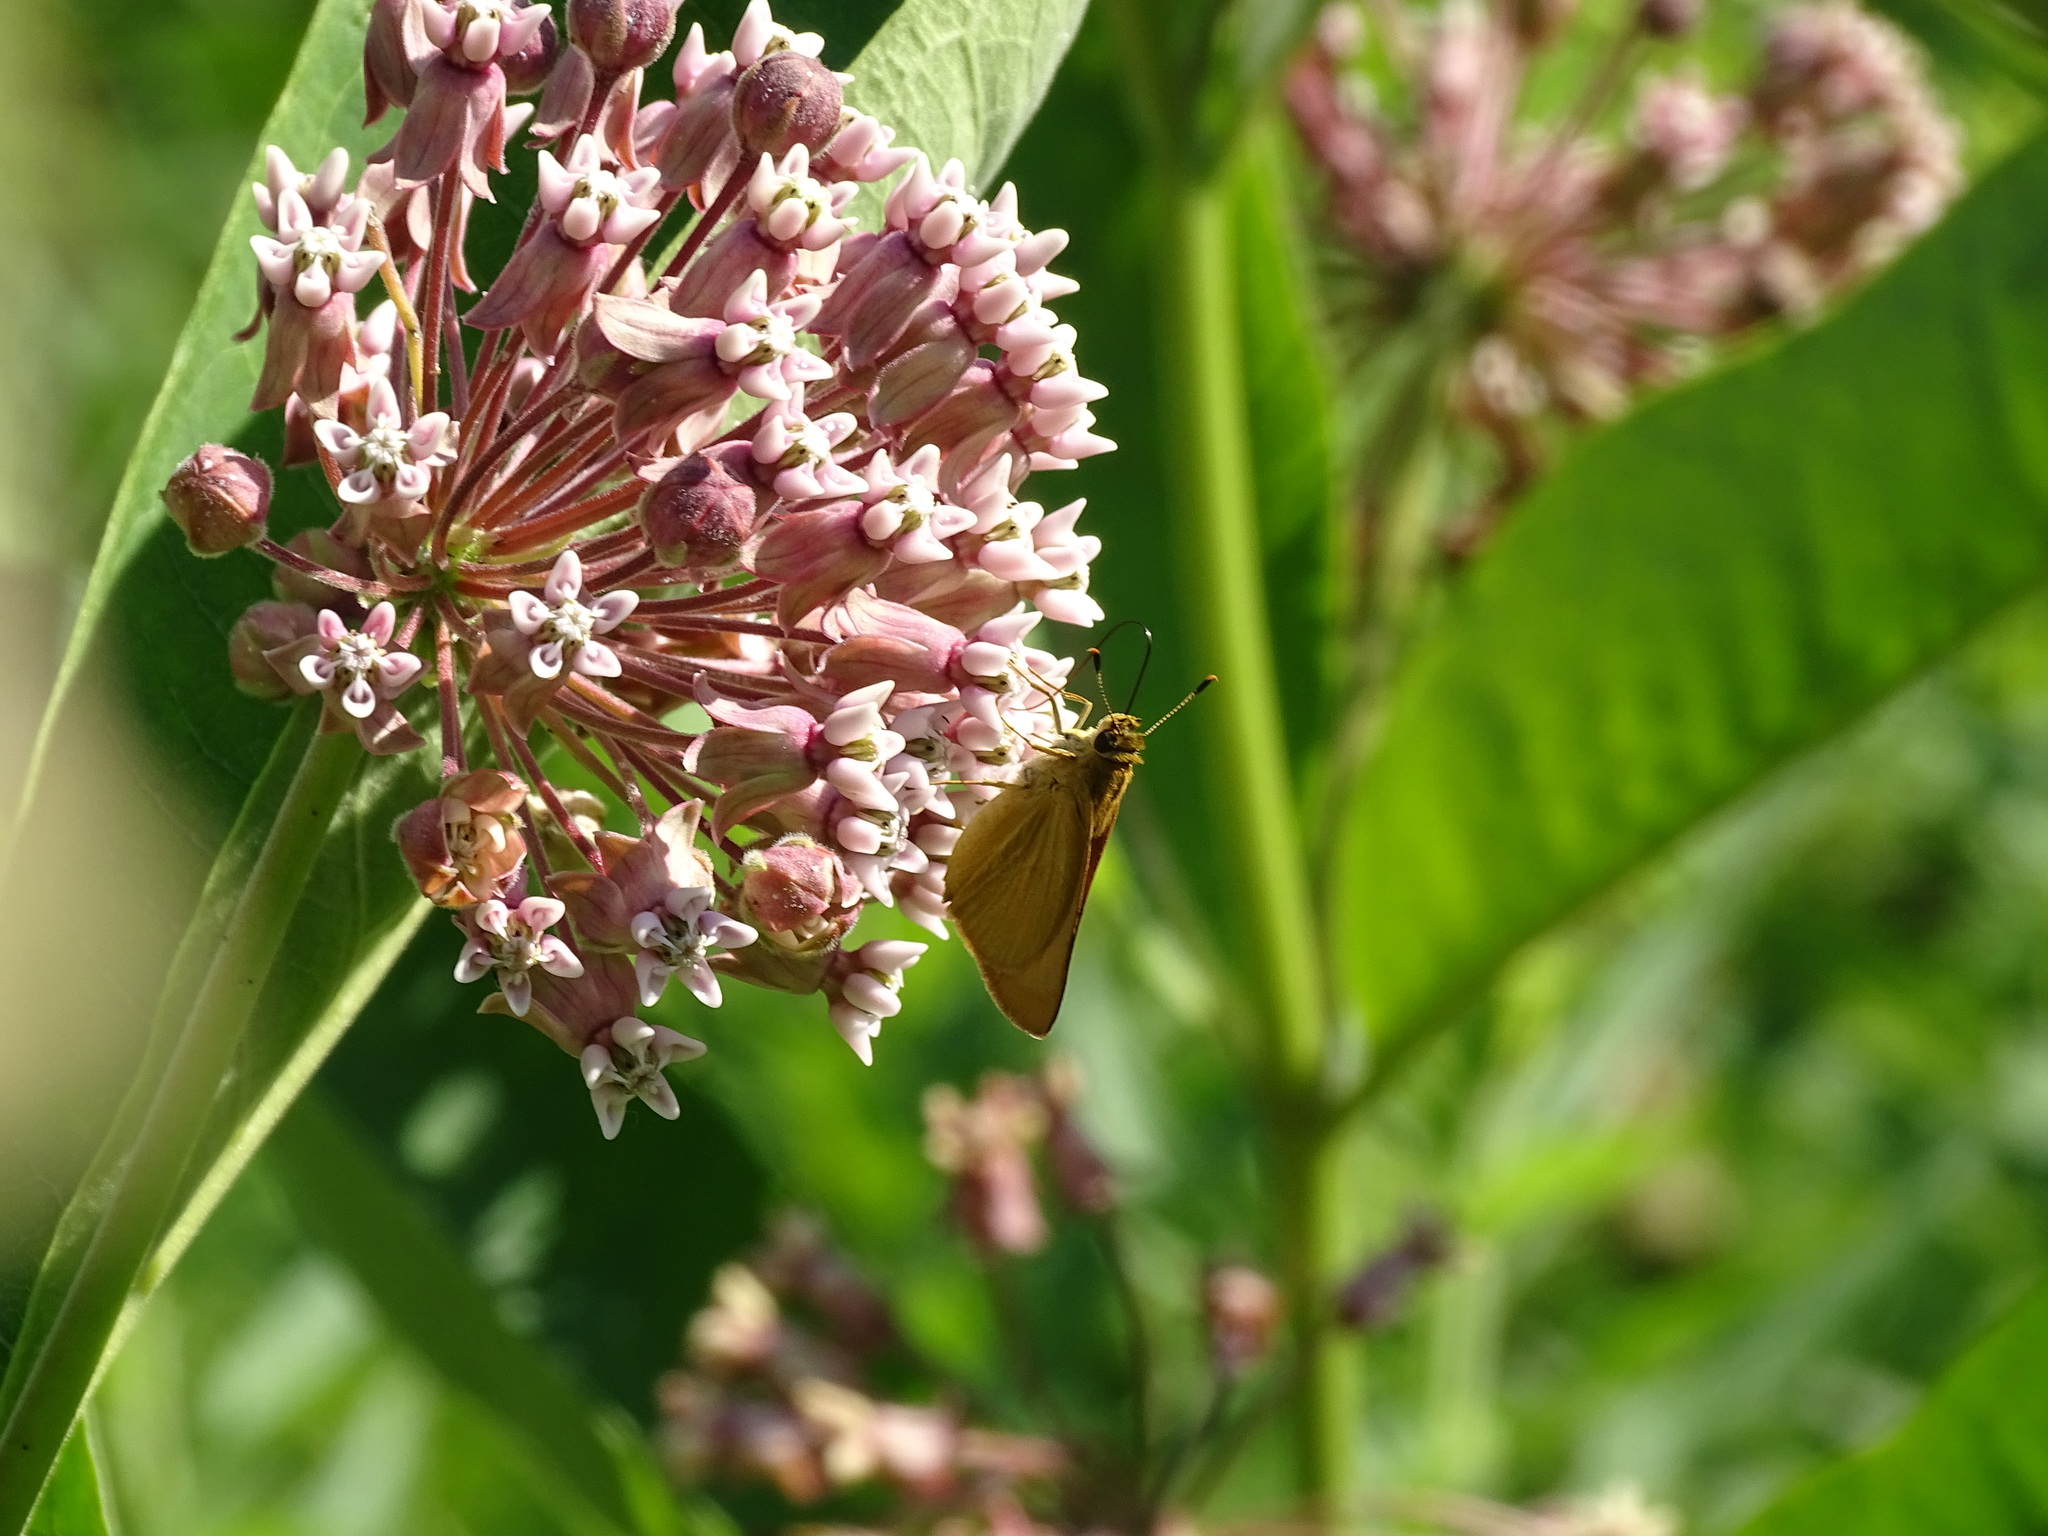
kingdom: Animalia
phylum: Arthropoda
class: Insecta
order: Lepidoptera
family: Hesperiidae
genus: Atrytone
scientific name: Atrytone delaware
